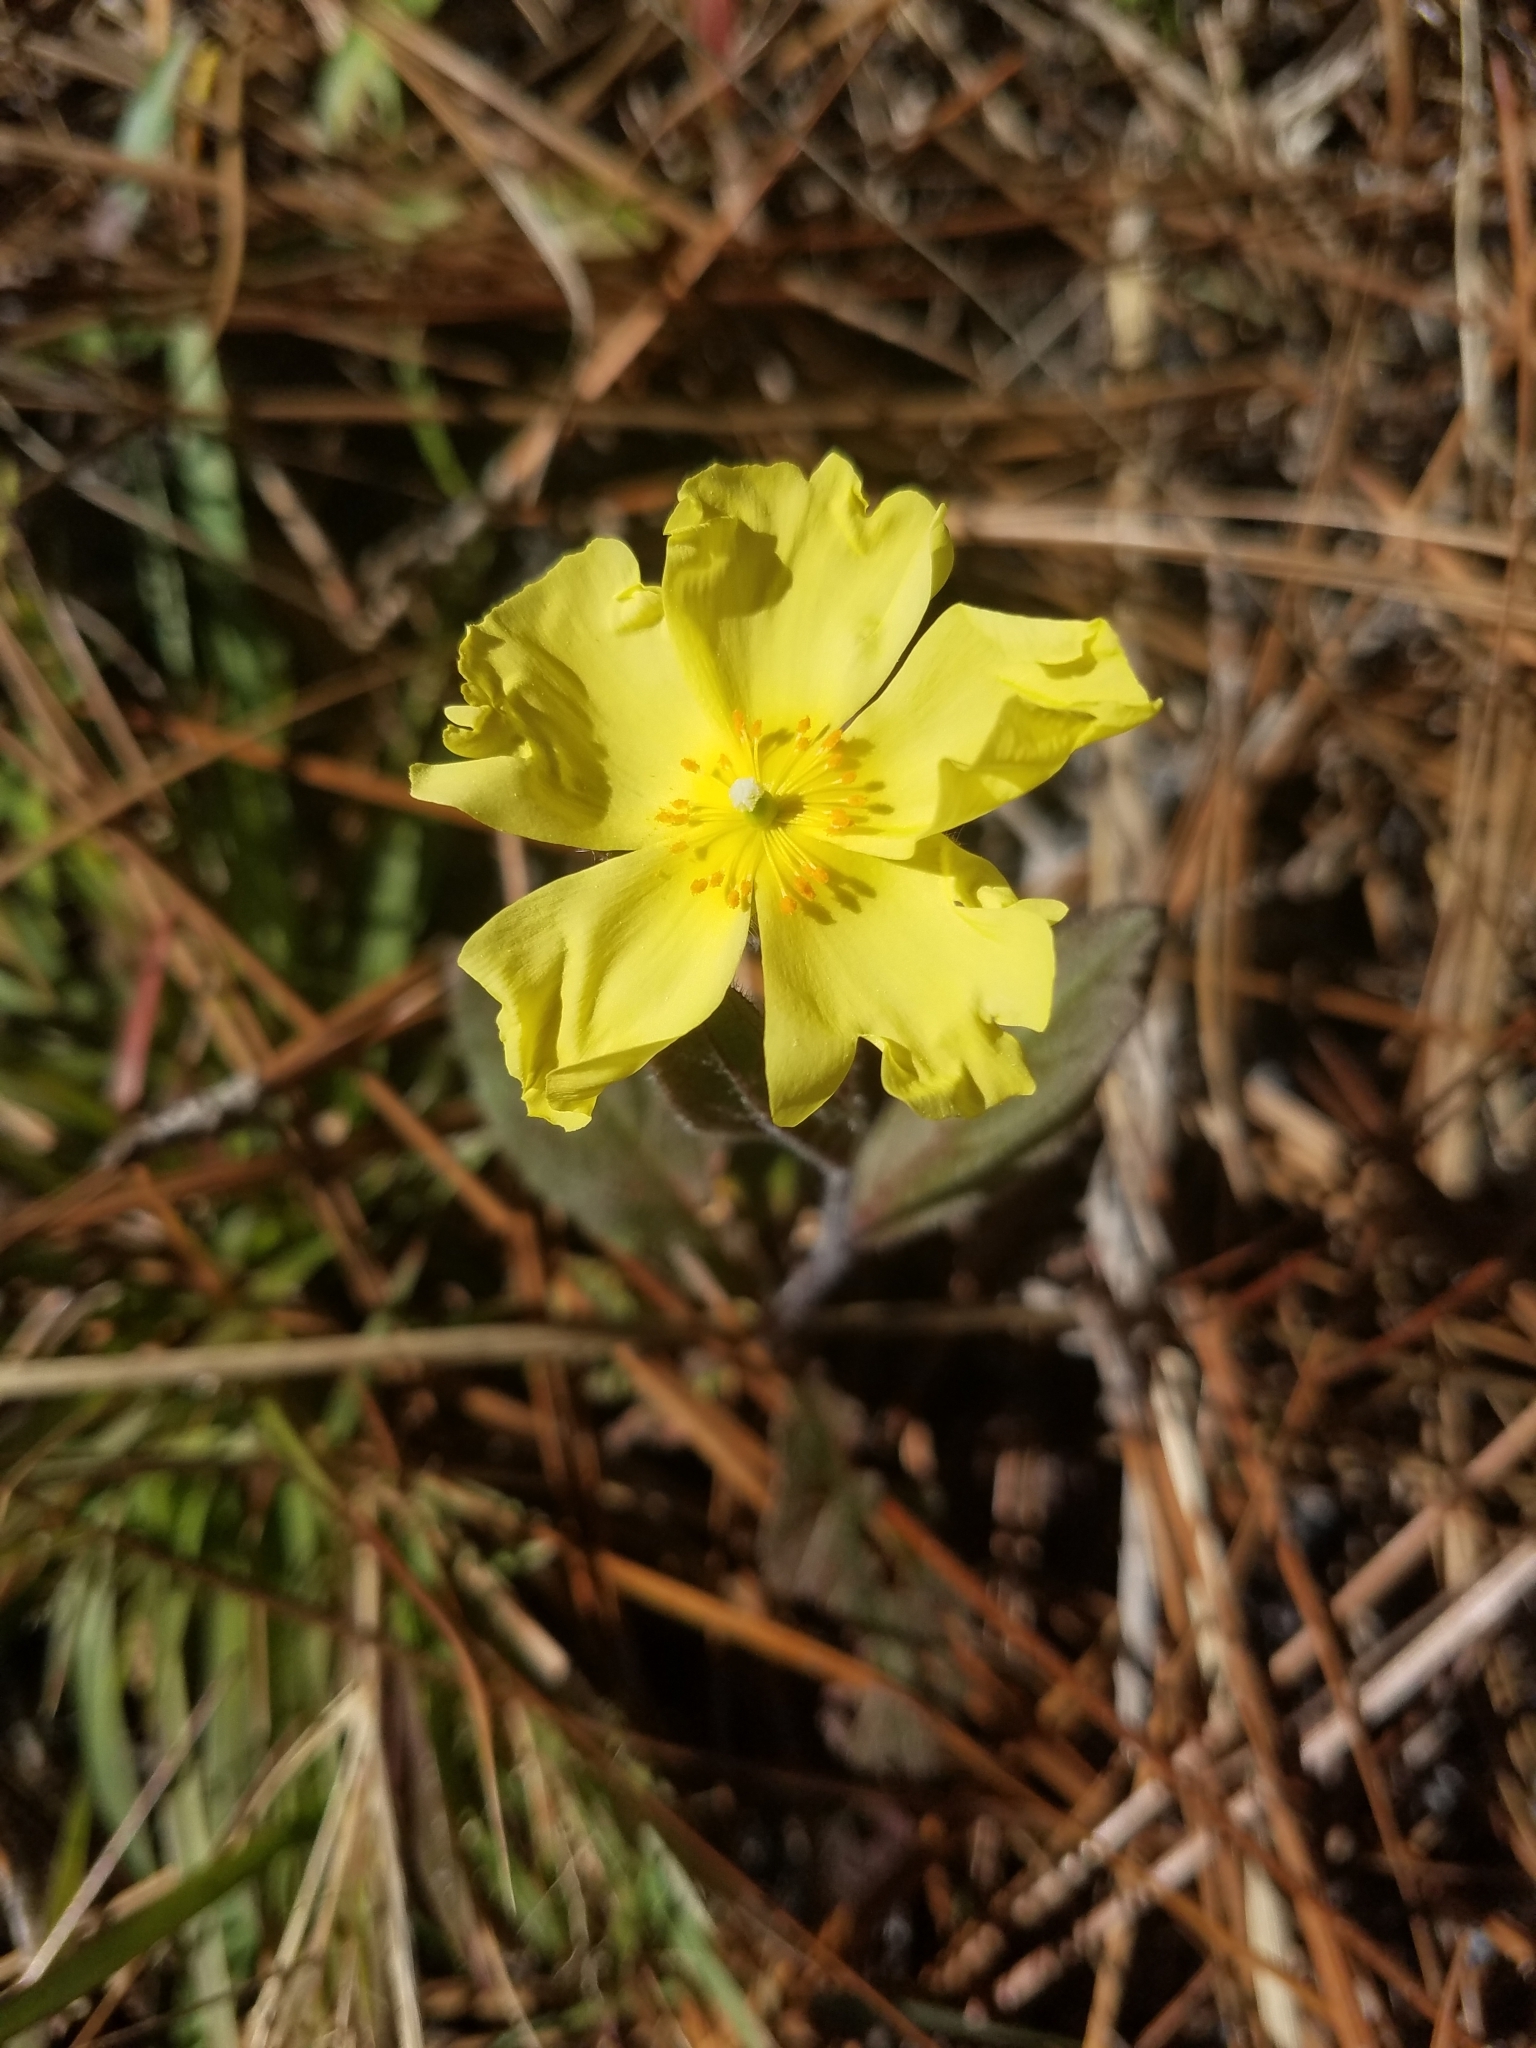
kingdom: Plantae
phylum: Tracheophyta
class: Magnoliopsida
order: Malvales
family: Cistaceae
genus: Crocanthemum
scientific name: Crocanthemum carolinianum
